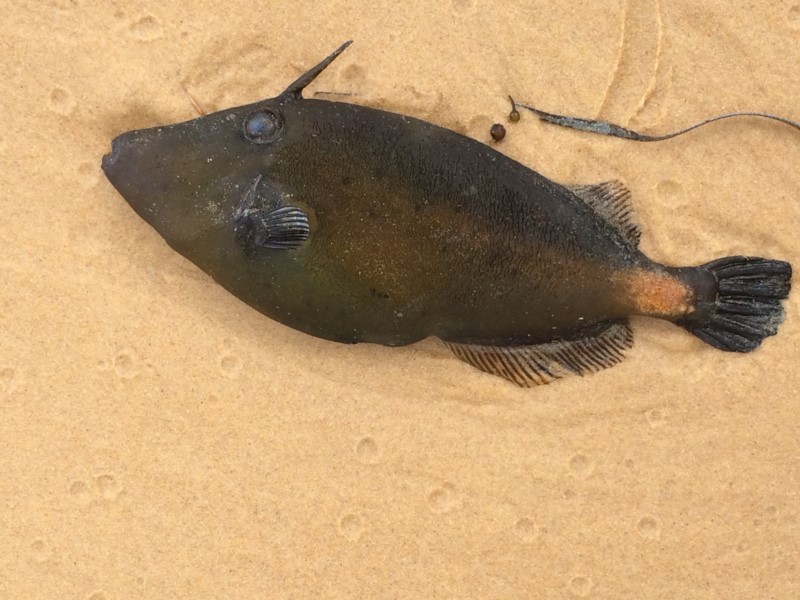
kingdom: Animalia
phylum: Chordata
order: Tetraodontiformes
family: Monacanthidae
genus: Meuschenia
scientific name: Meuschenia flavolineata
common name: Yellowstriped leatherjacket
